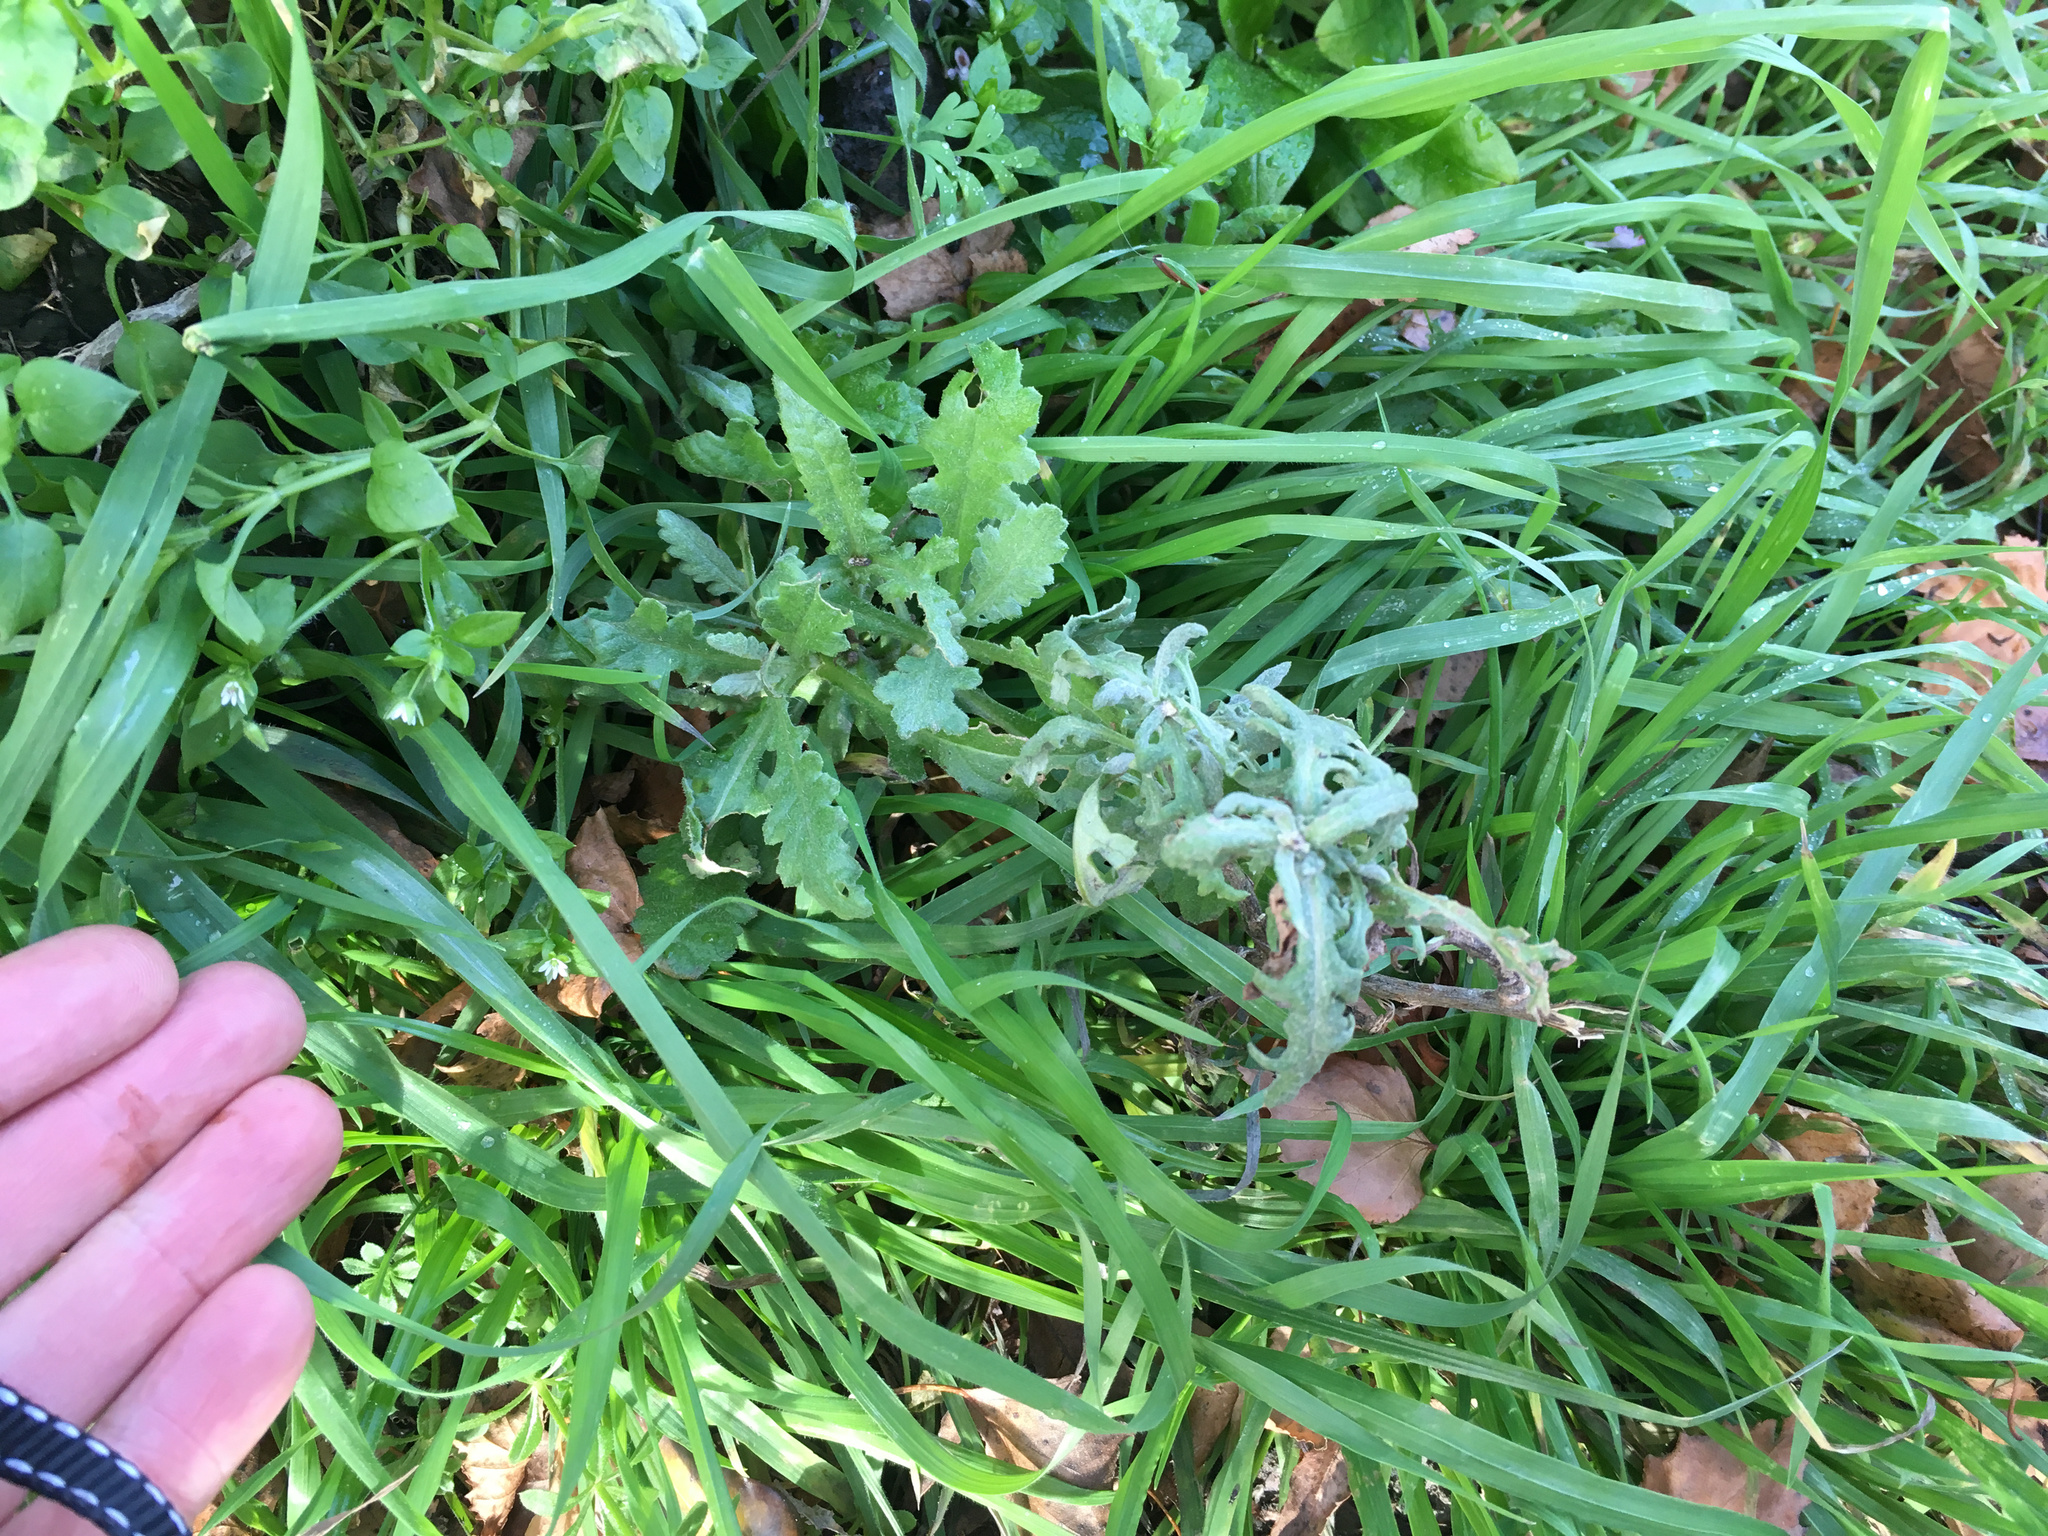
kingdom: Plantae
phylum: Tracheophyta
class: Magnoliopsida
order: Asterales
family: Asteraceae
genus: Senecio
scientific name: Senecio glomeratus
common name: Cutleaf burnweed
